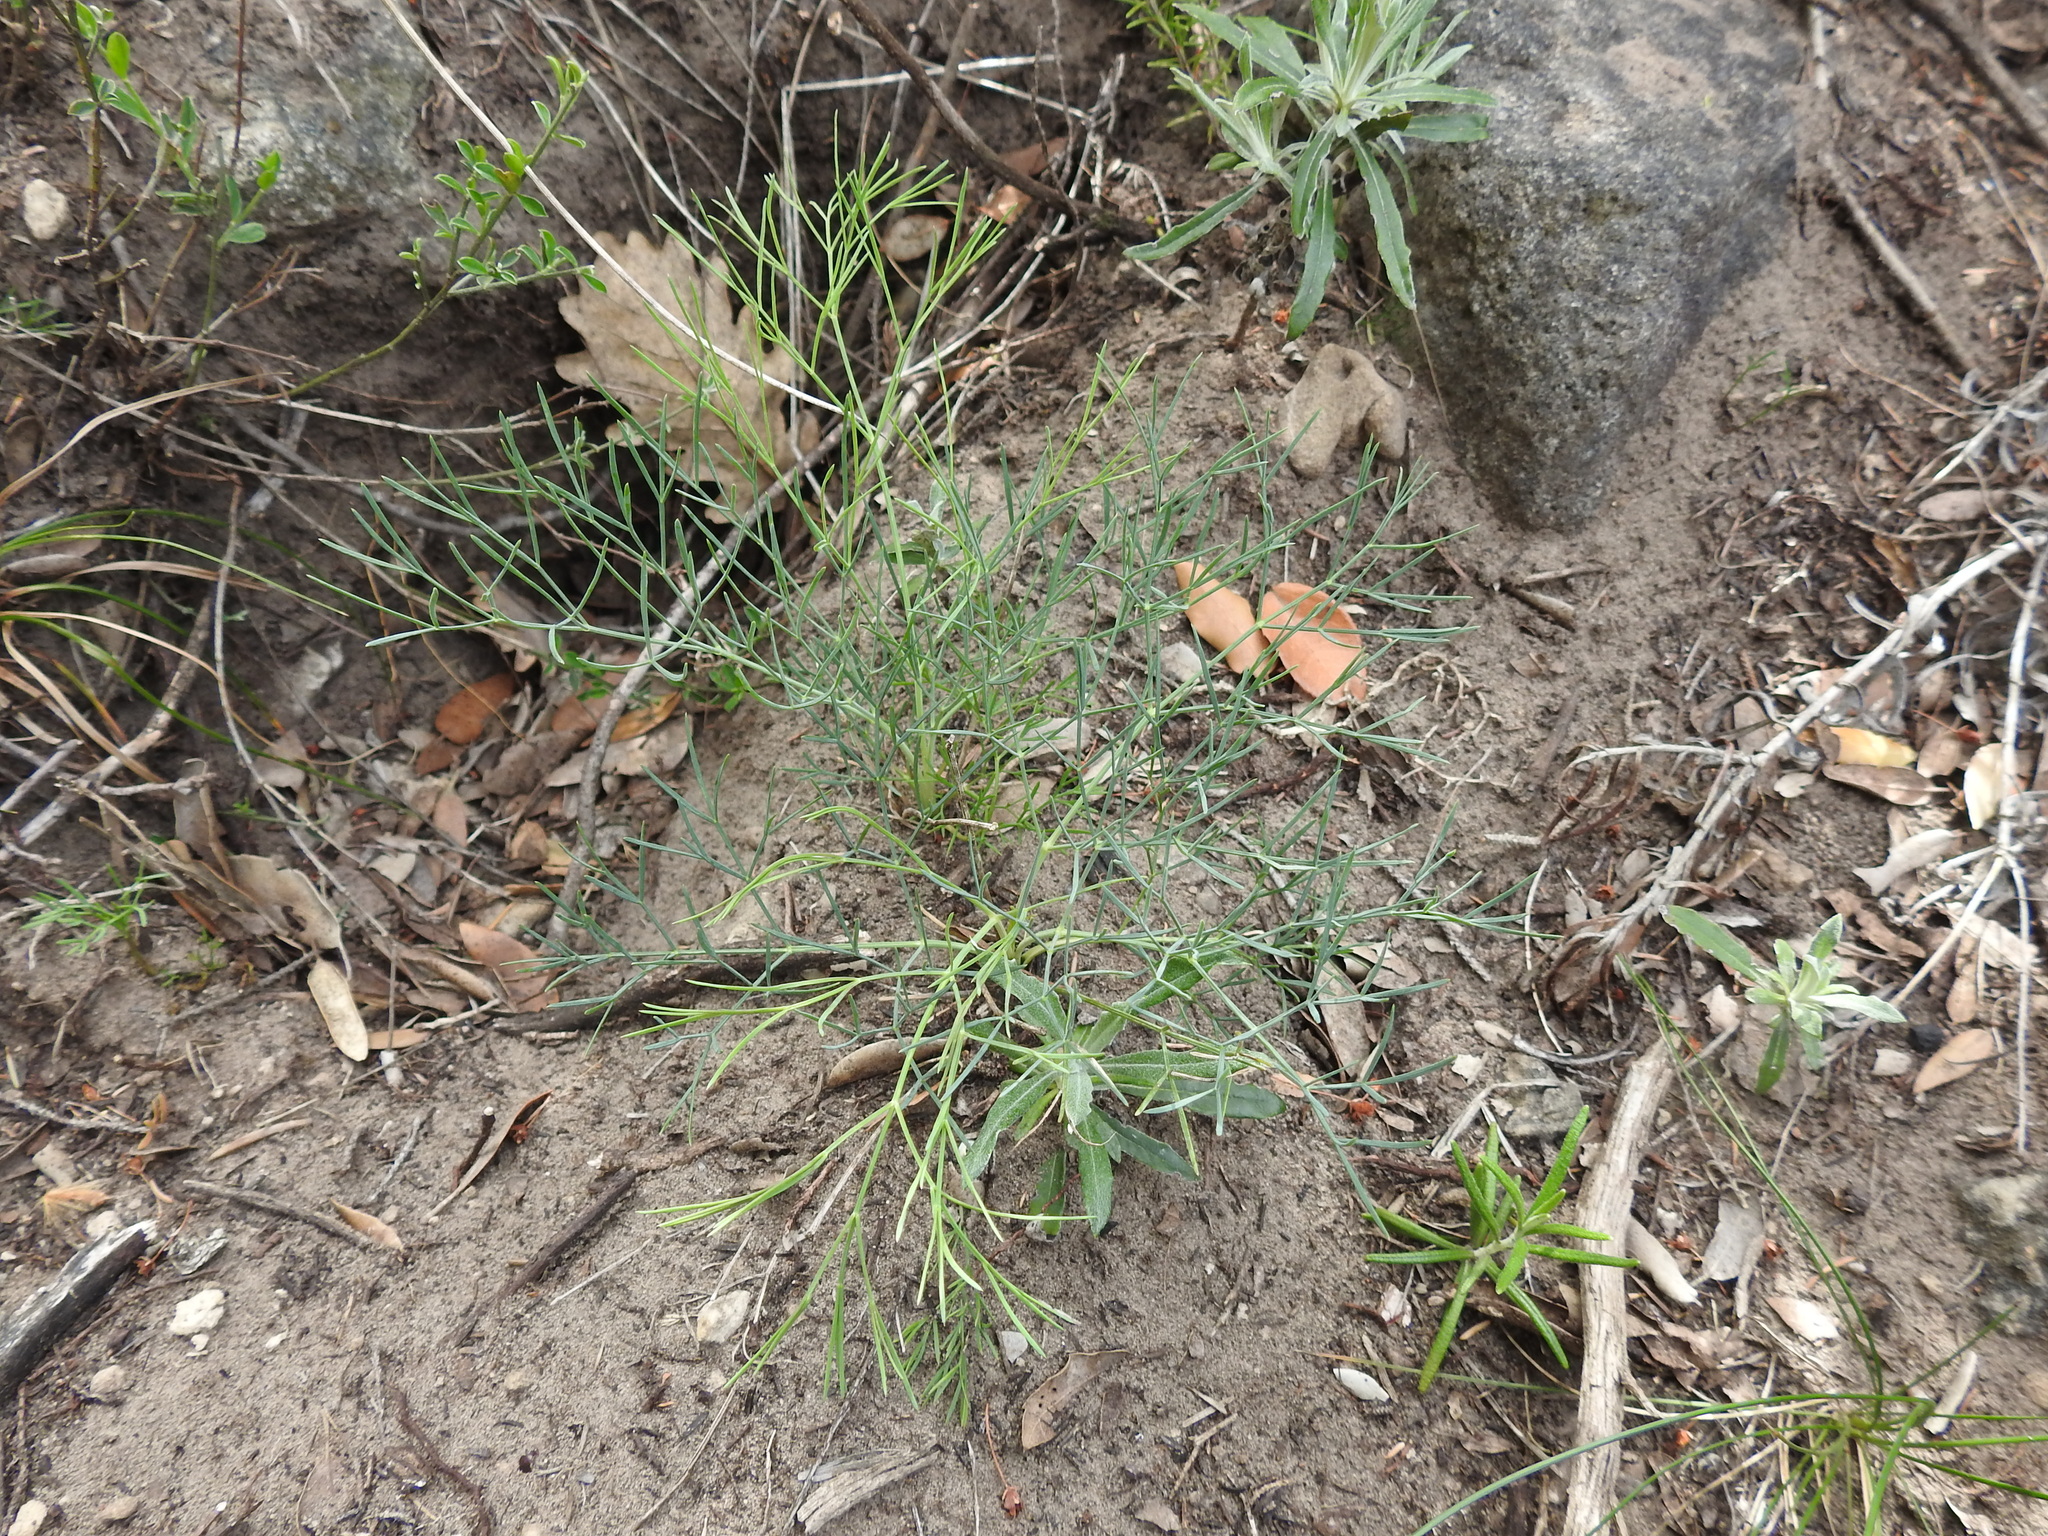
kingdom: Plantae
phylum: Tracheophyta
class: Magnoliopsida
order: Apiales
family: Apiaceae
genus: Seseli
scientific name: Seseli longifolium
